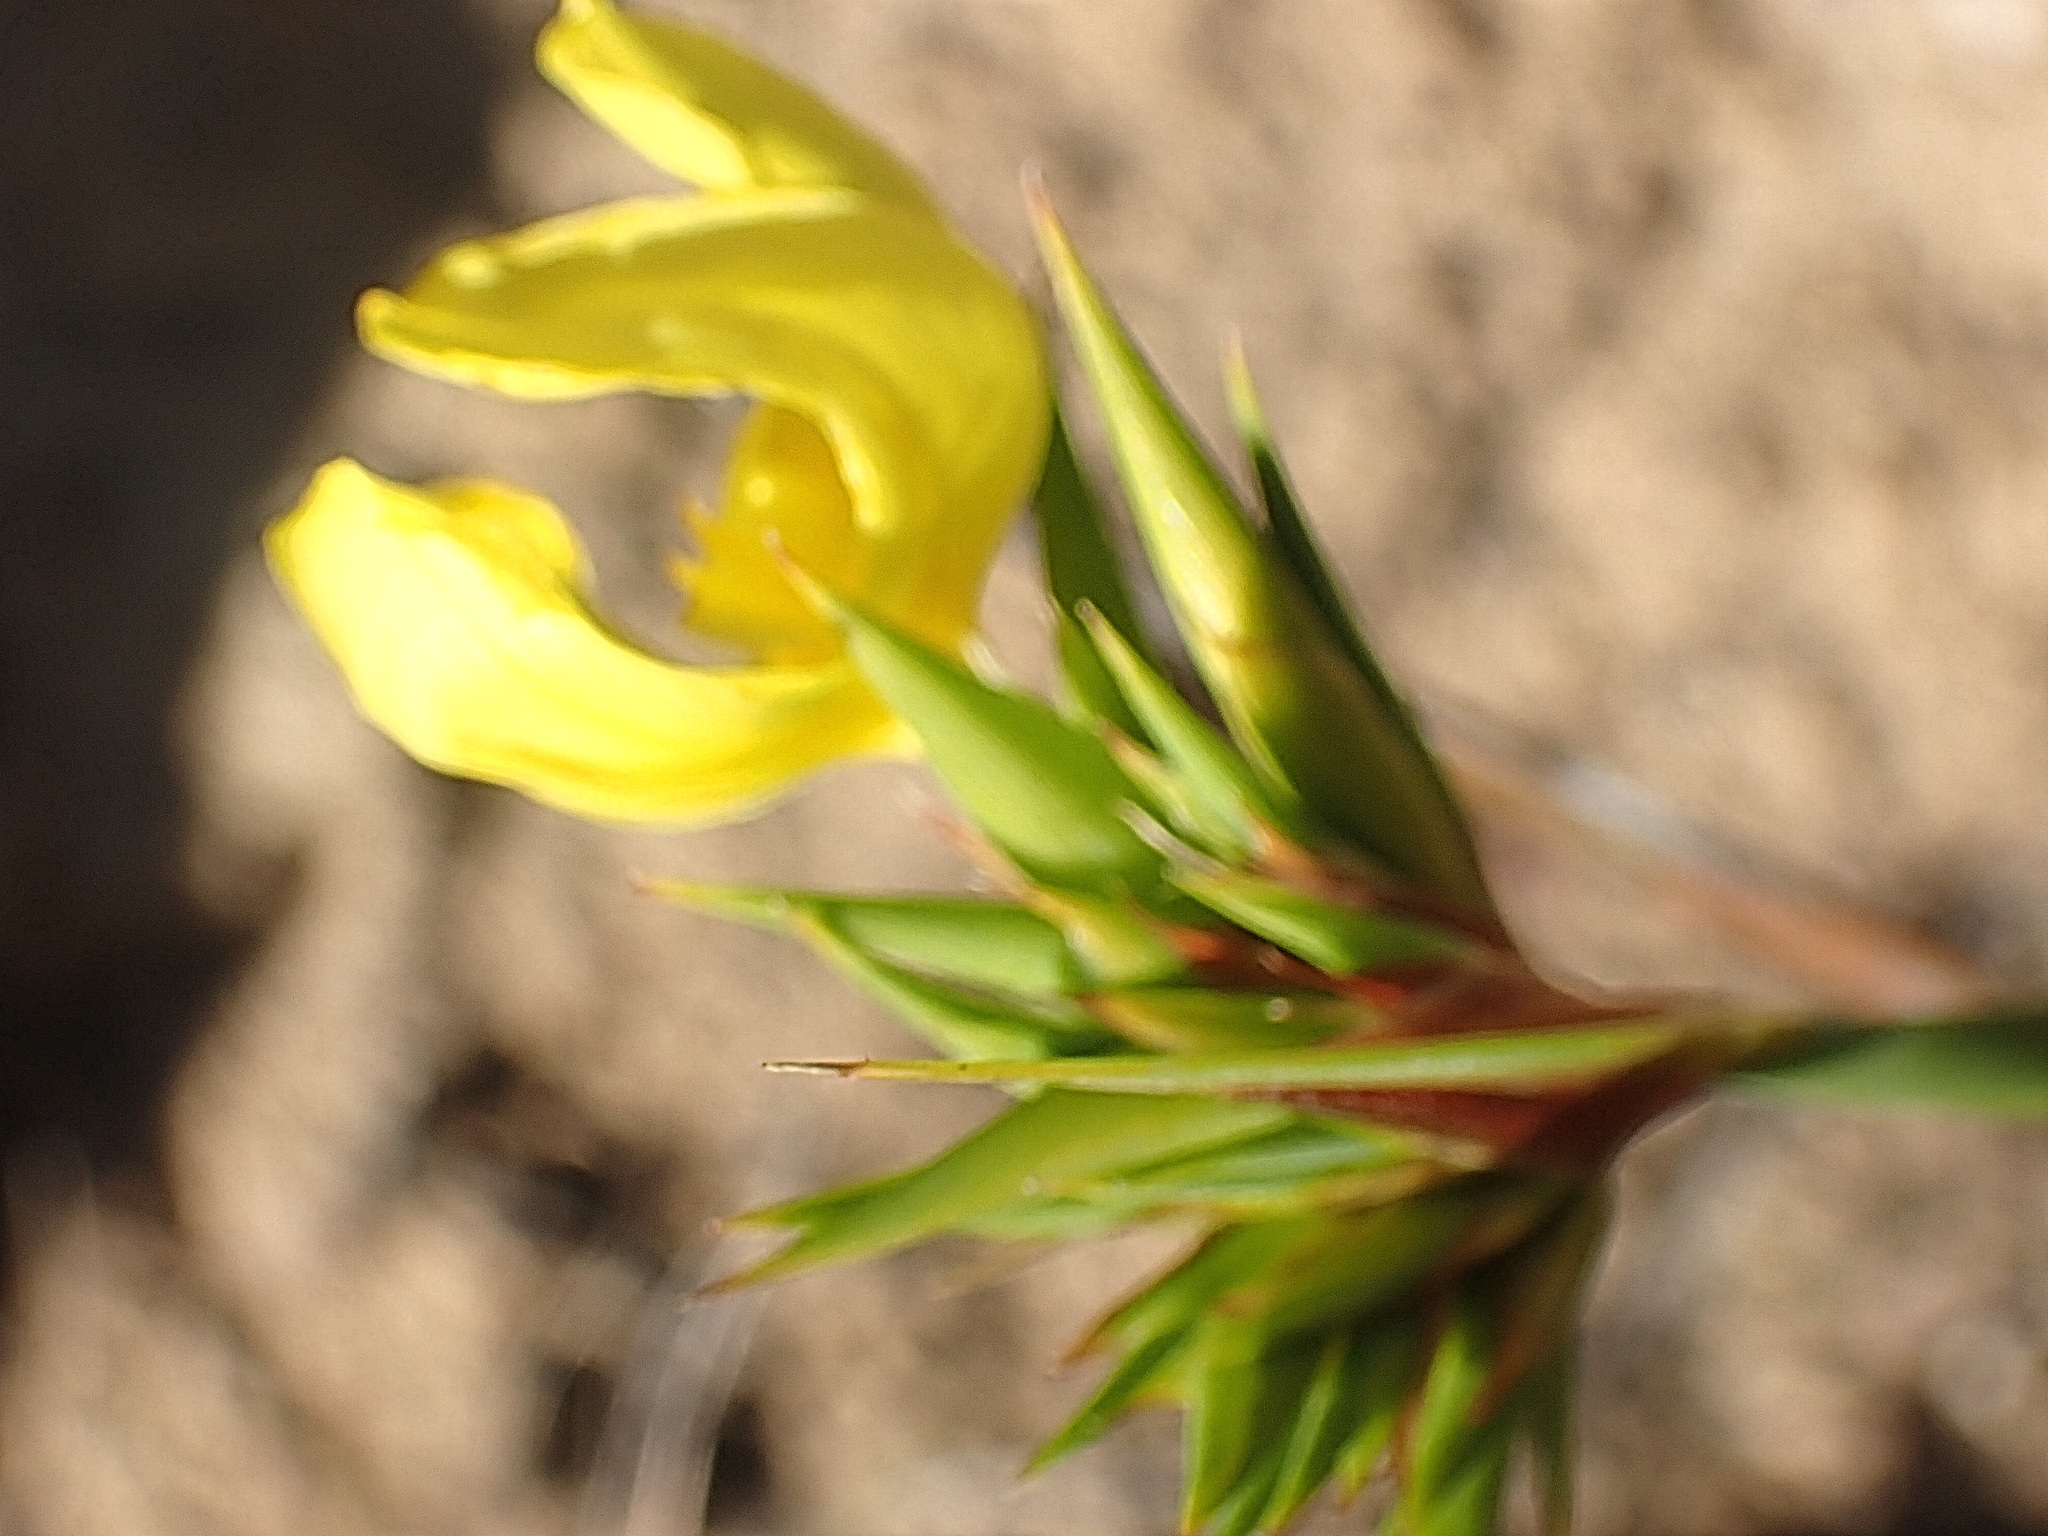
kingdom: Plantae
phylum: Tracheophyta
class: Liliopsida
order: Asparagales
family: Iridaceae
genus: Bobartia
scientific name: Bobartia orientalis
